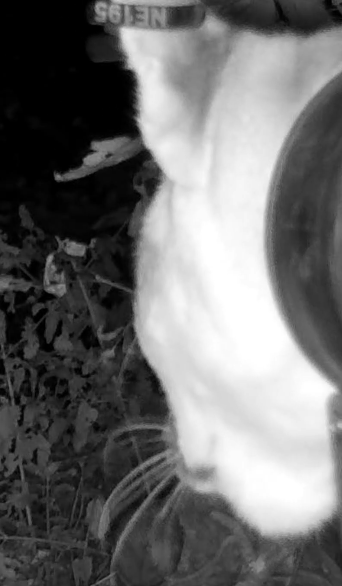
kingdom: Animalia
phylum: Chordata
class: Mammalia
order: Carnivora
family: Felidae
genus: Puma
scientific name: Puma concolor
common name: Puma
